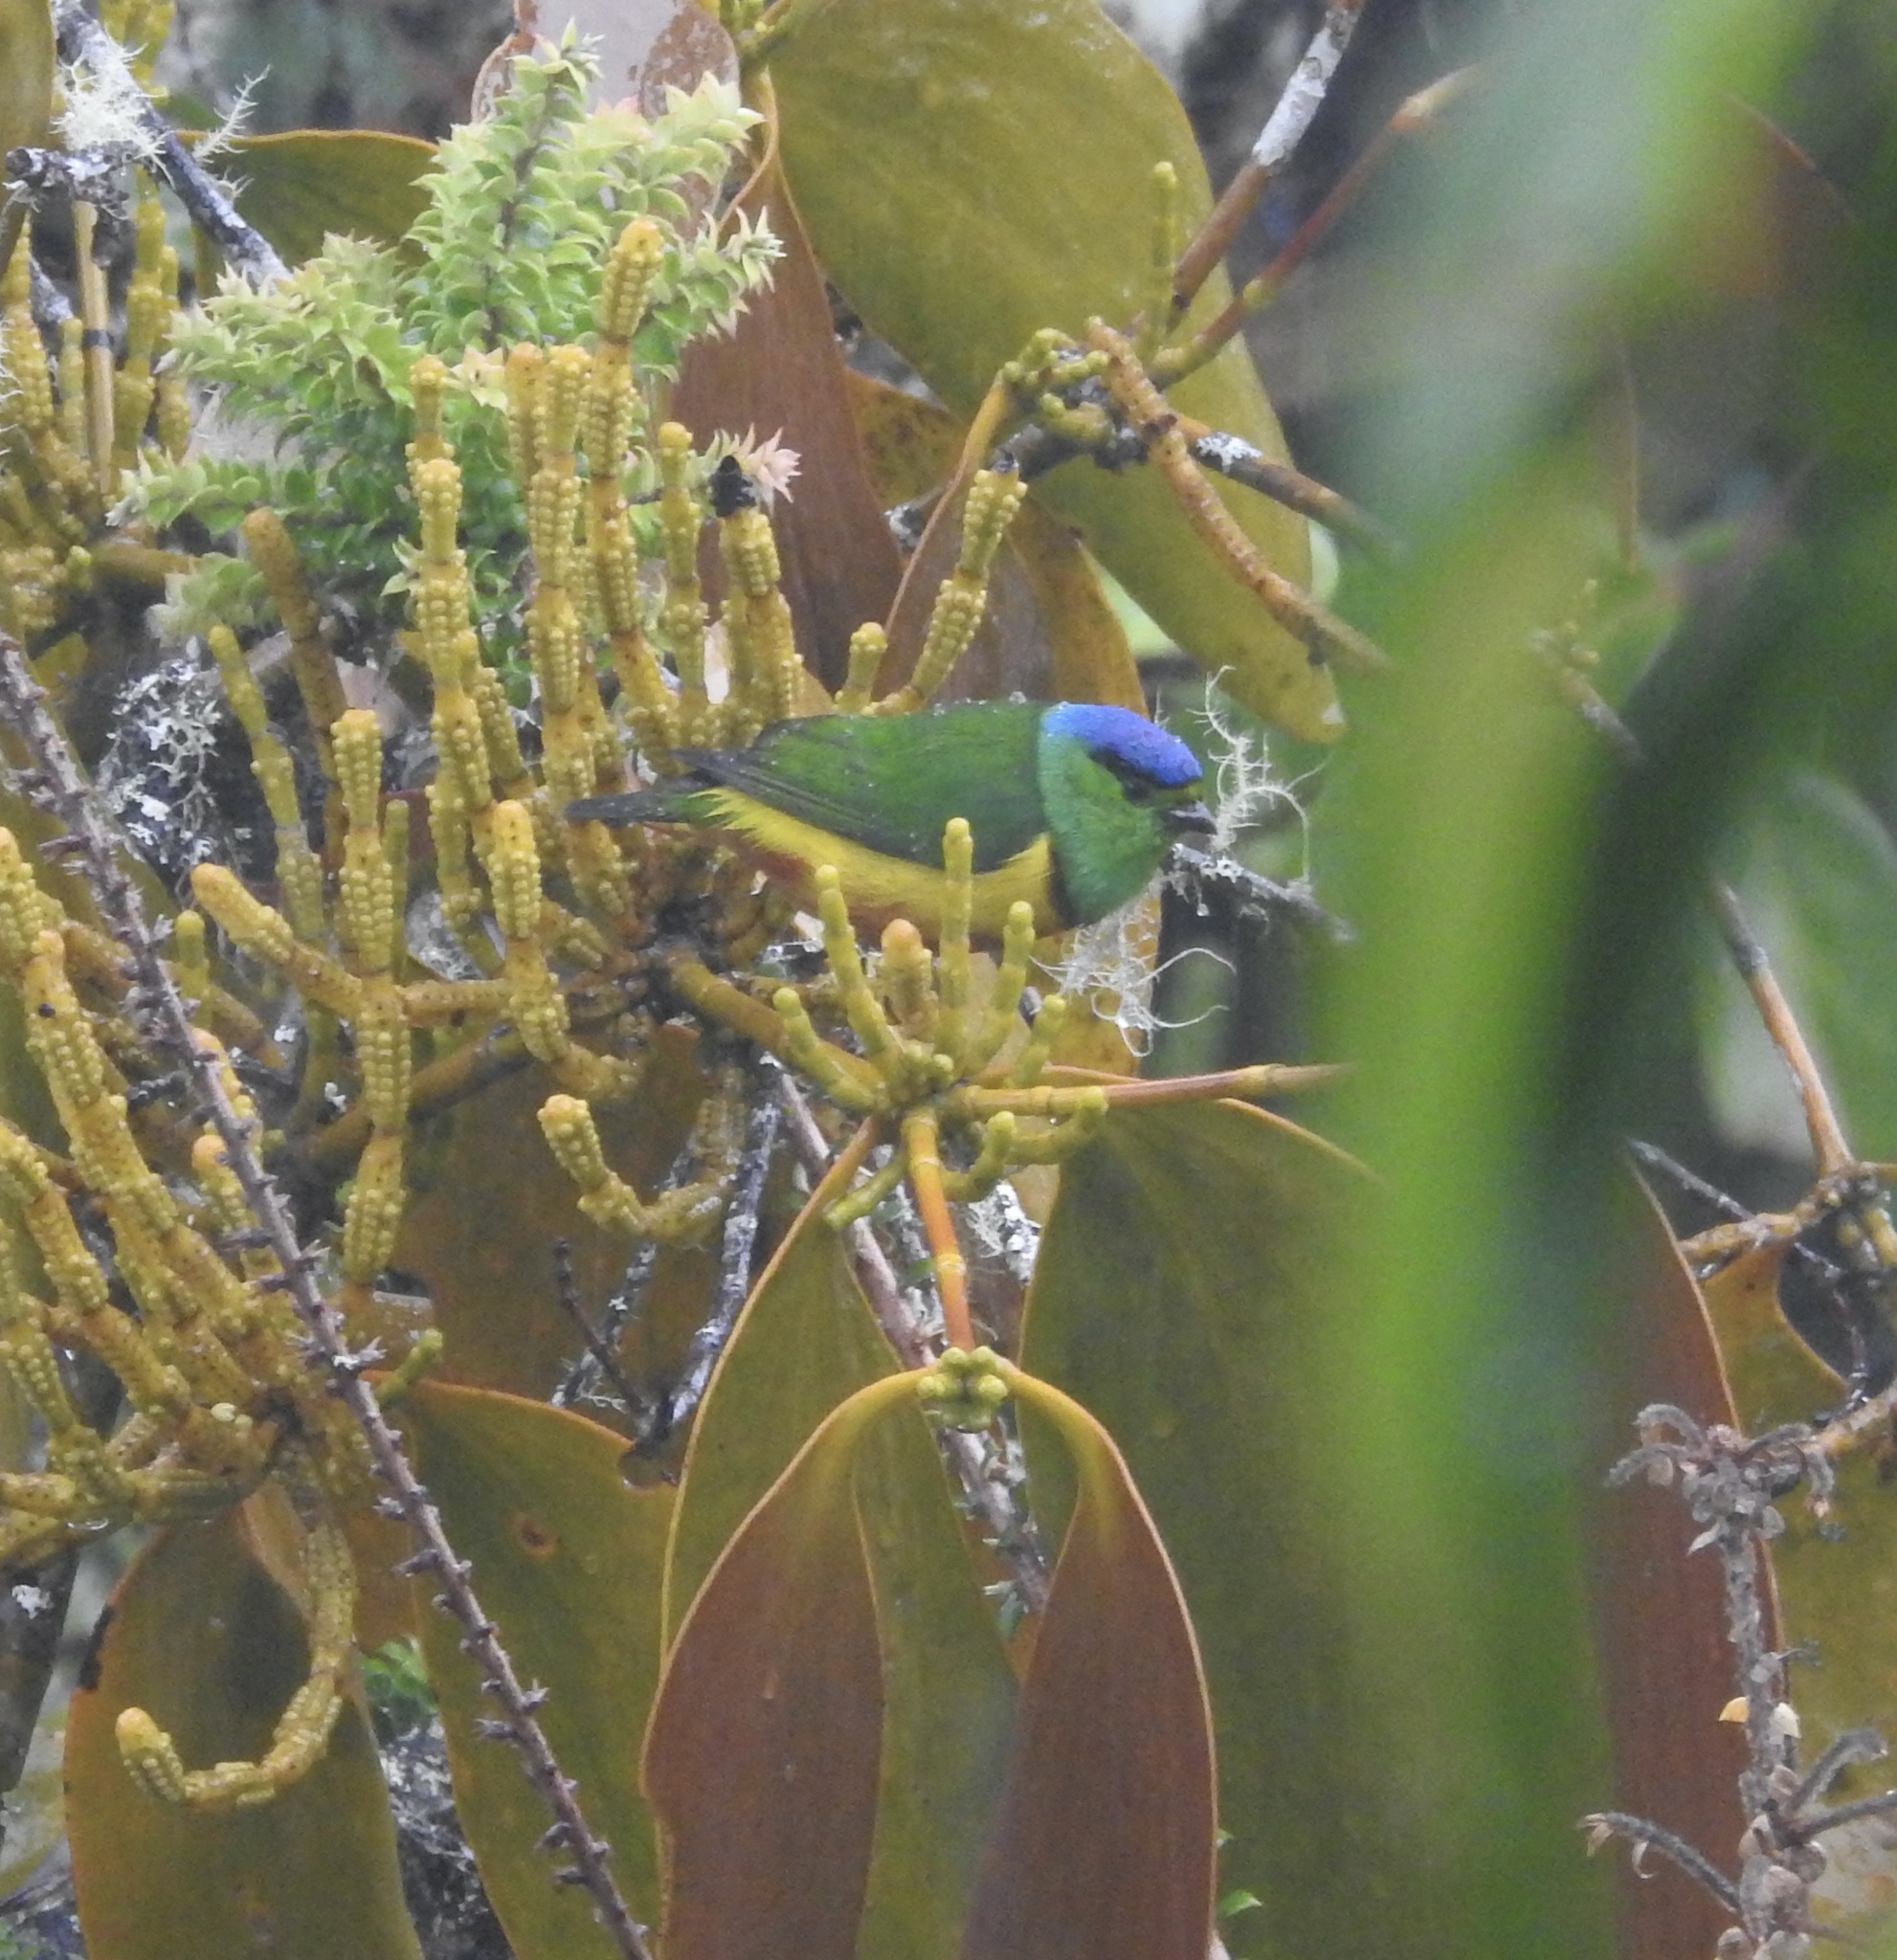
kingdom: Animalia
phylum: Chordata
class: Aves
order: Passeriformes
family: Fringillidae
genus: Chlorophonia
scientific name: Chlorophonia pyrrhophrys
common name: Chestnut-breasted chlorophonia
